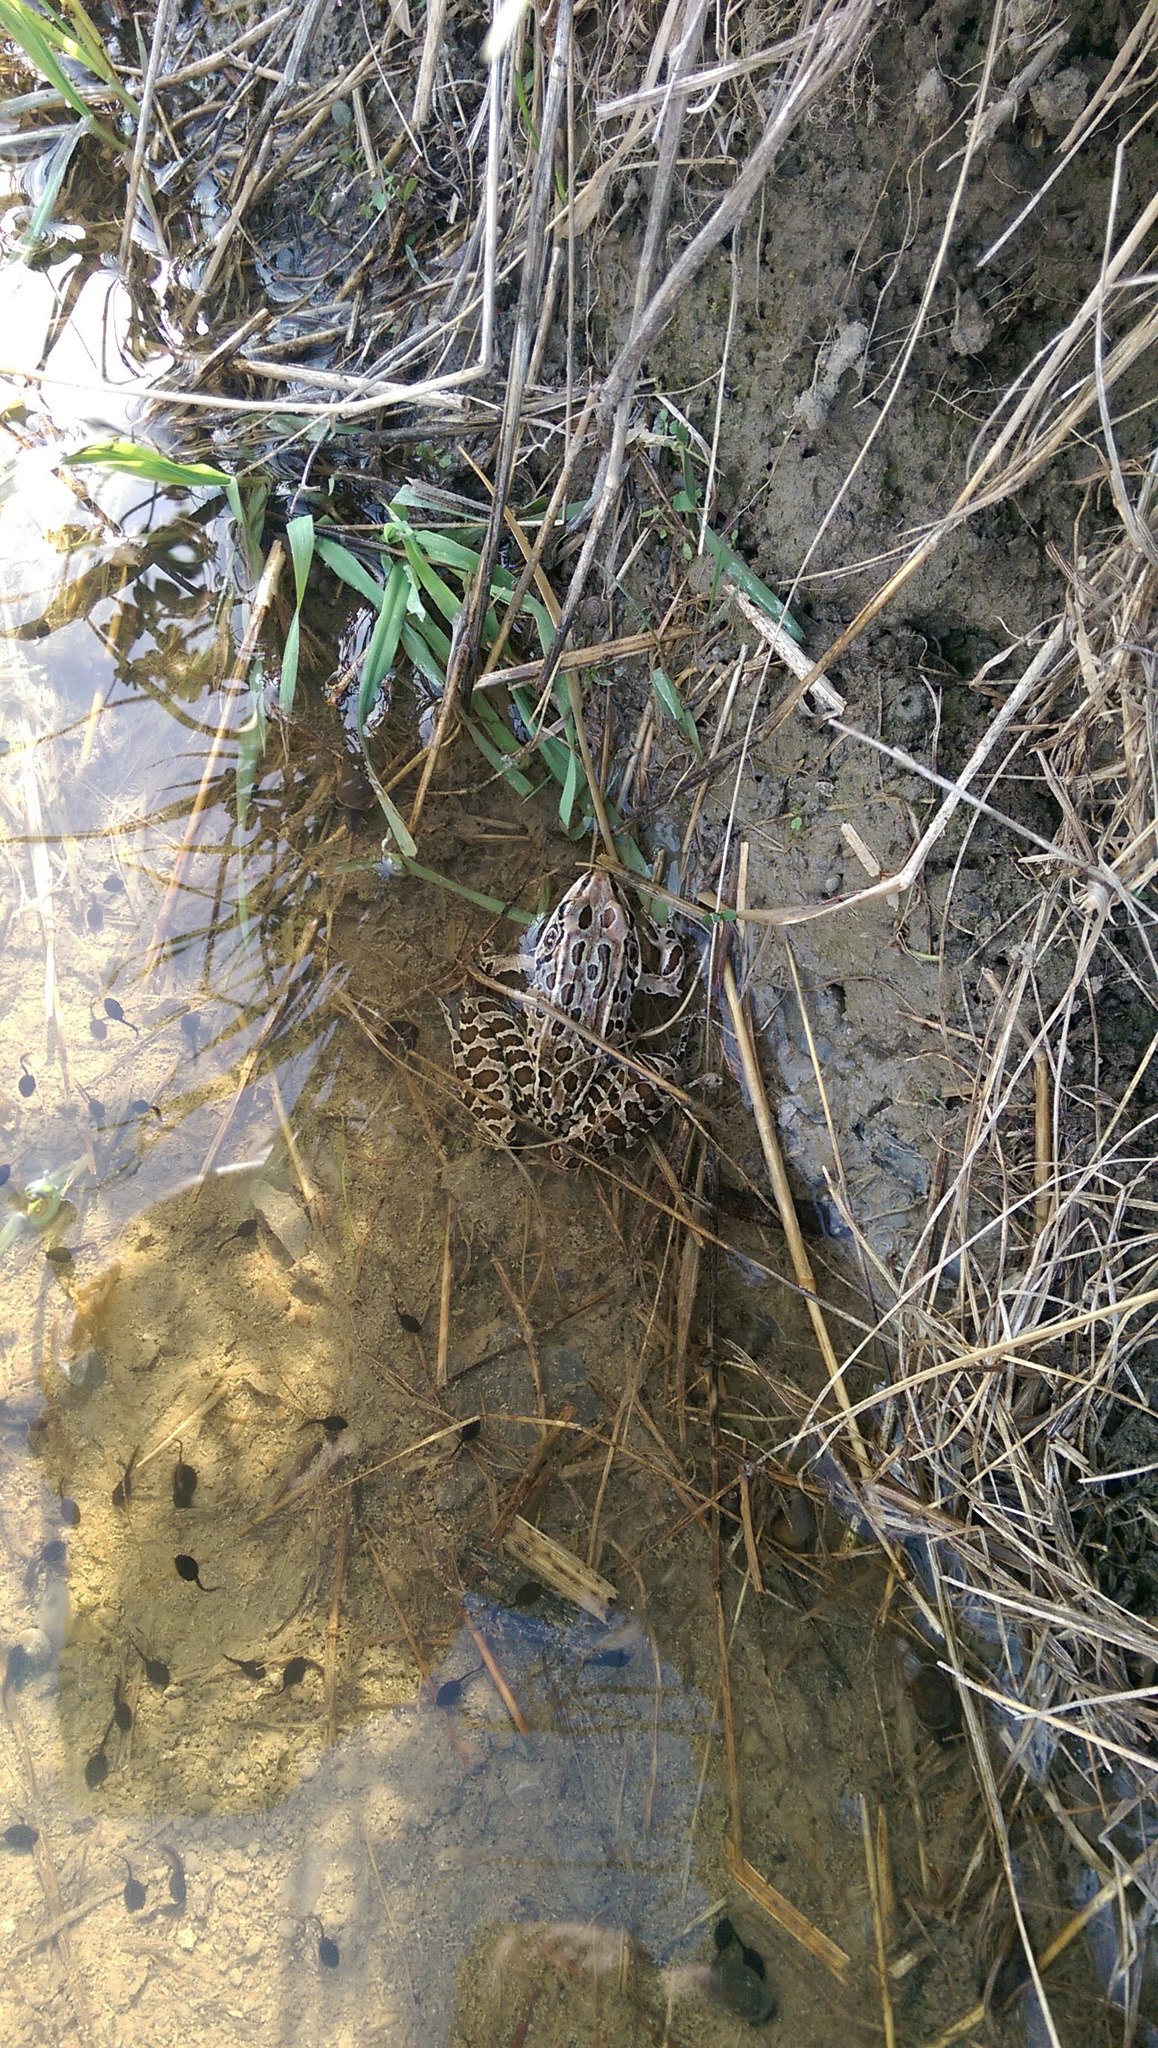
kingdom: Animalia
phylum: Chordata
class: Amphibia
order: Anura
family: Ranidae
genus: Lithobates
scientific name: Lithobates pipiens
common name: Northern leopard frog
